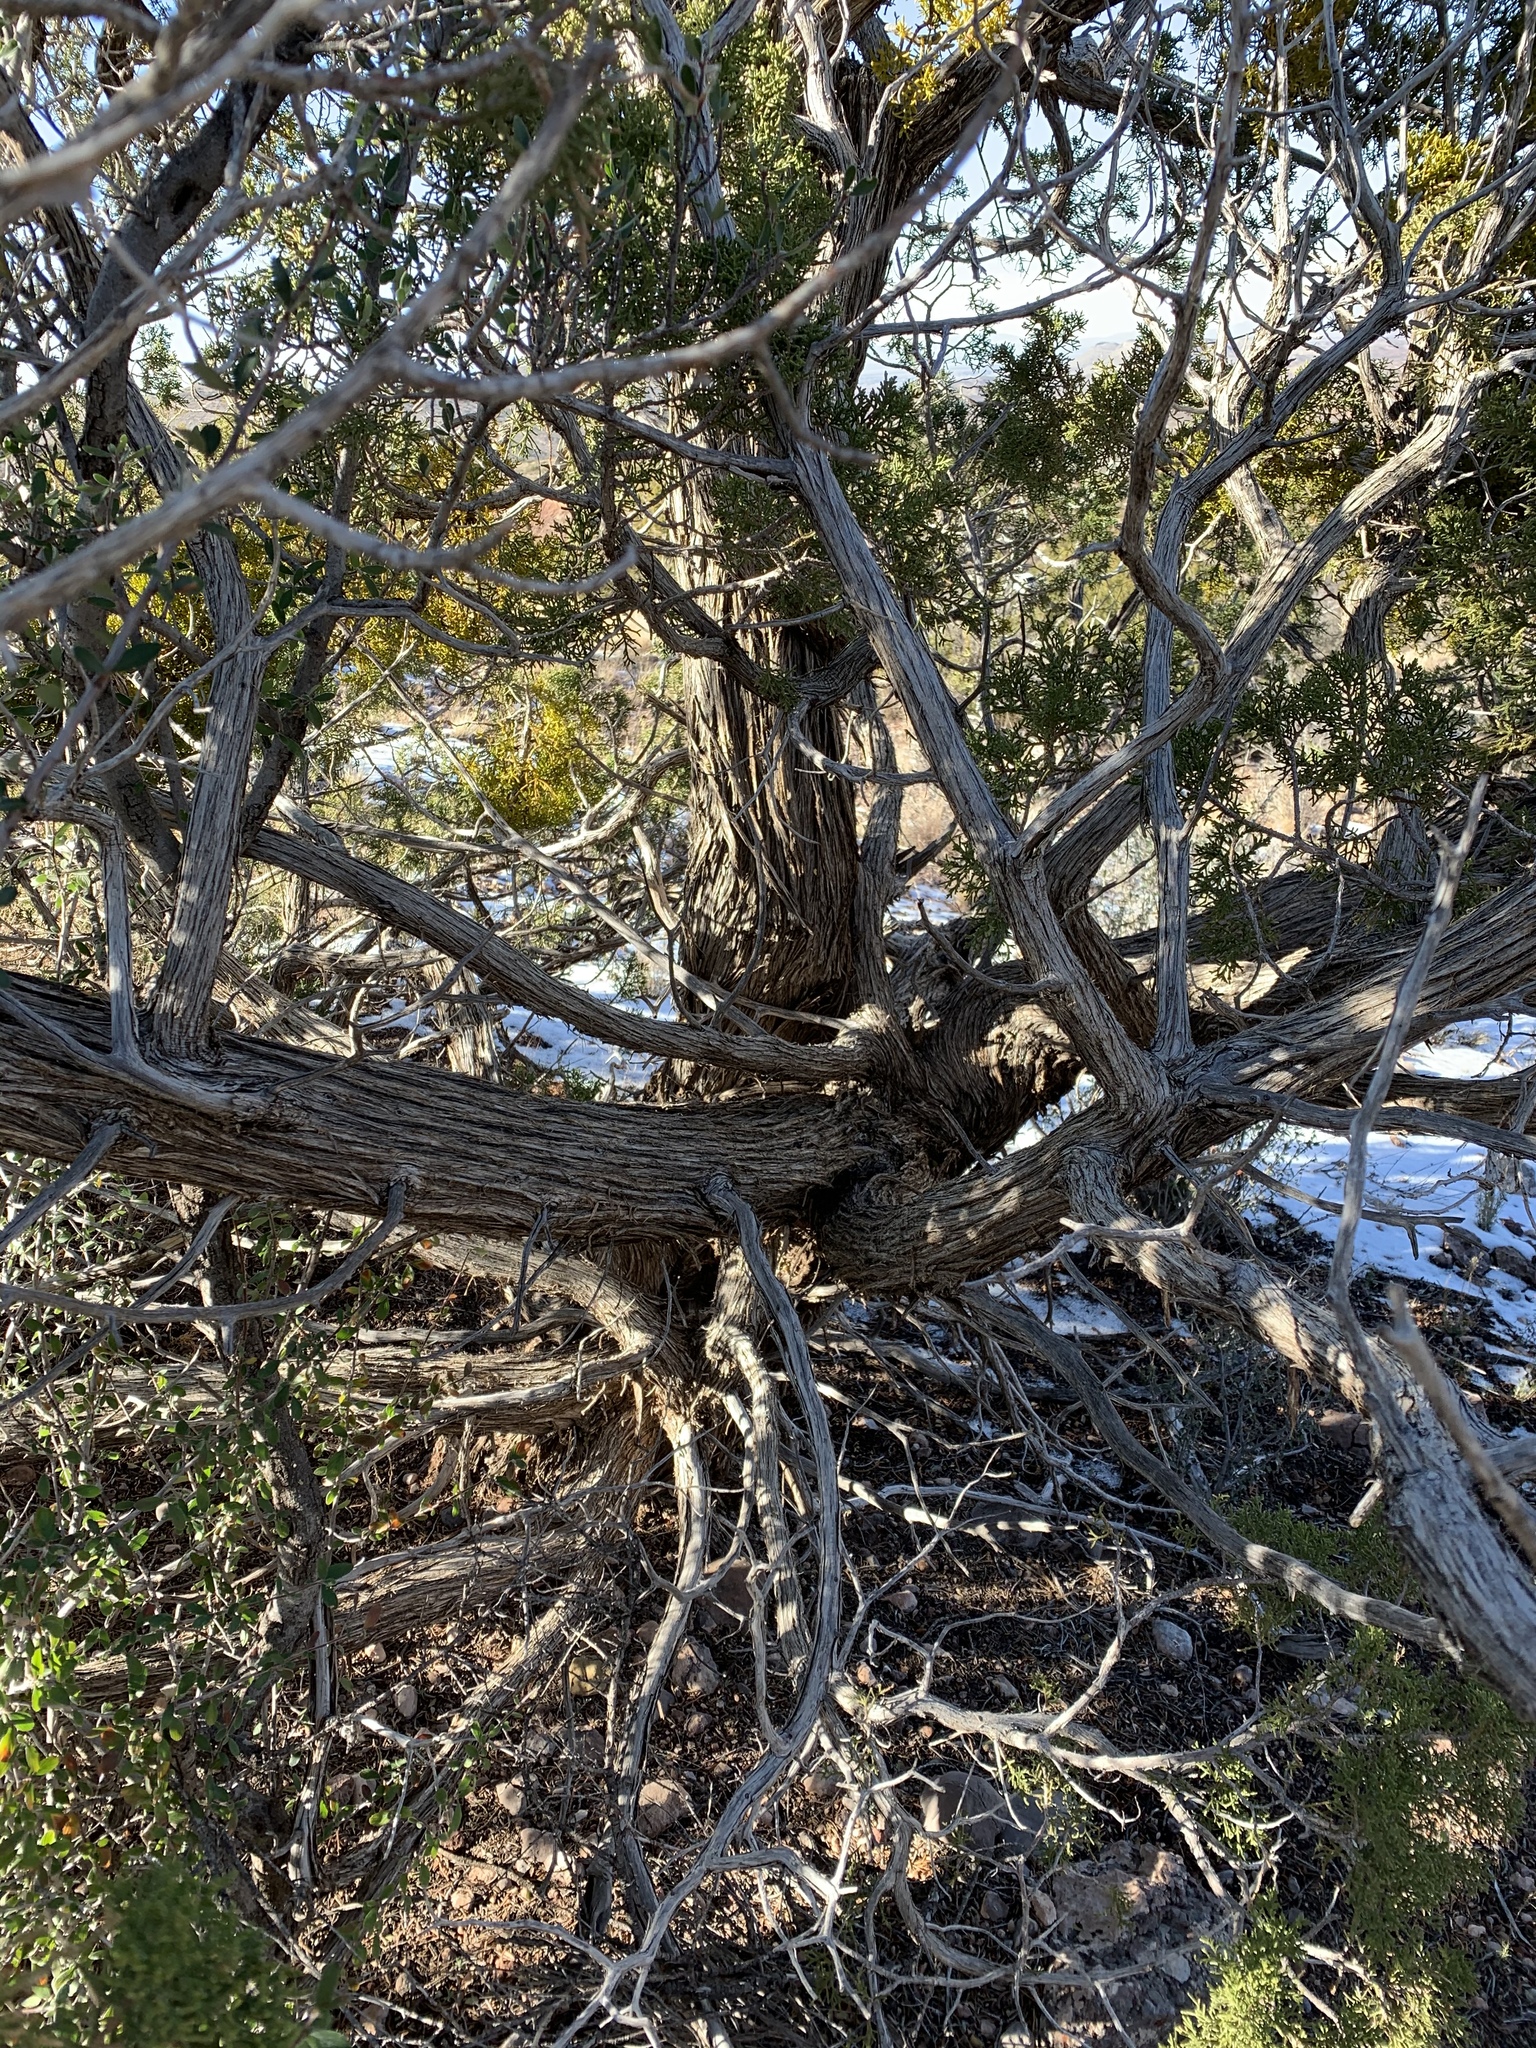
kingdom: Plantae
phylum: Tracheophyta
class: Pinopsida
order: Pinales
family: Cupressaceae
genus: Juniperus
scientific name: Juniperus monosperma
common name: One-seed juniper
